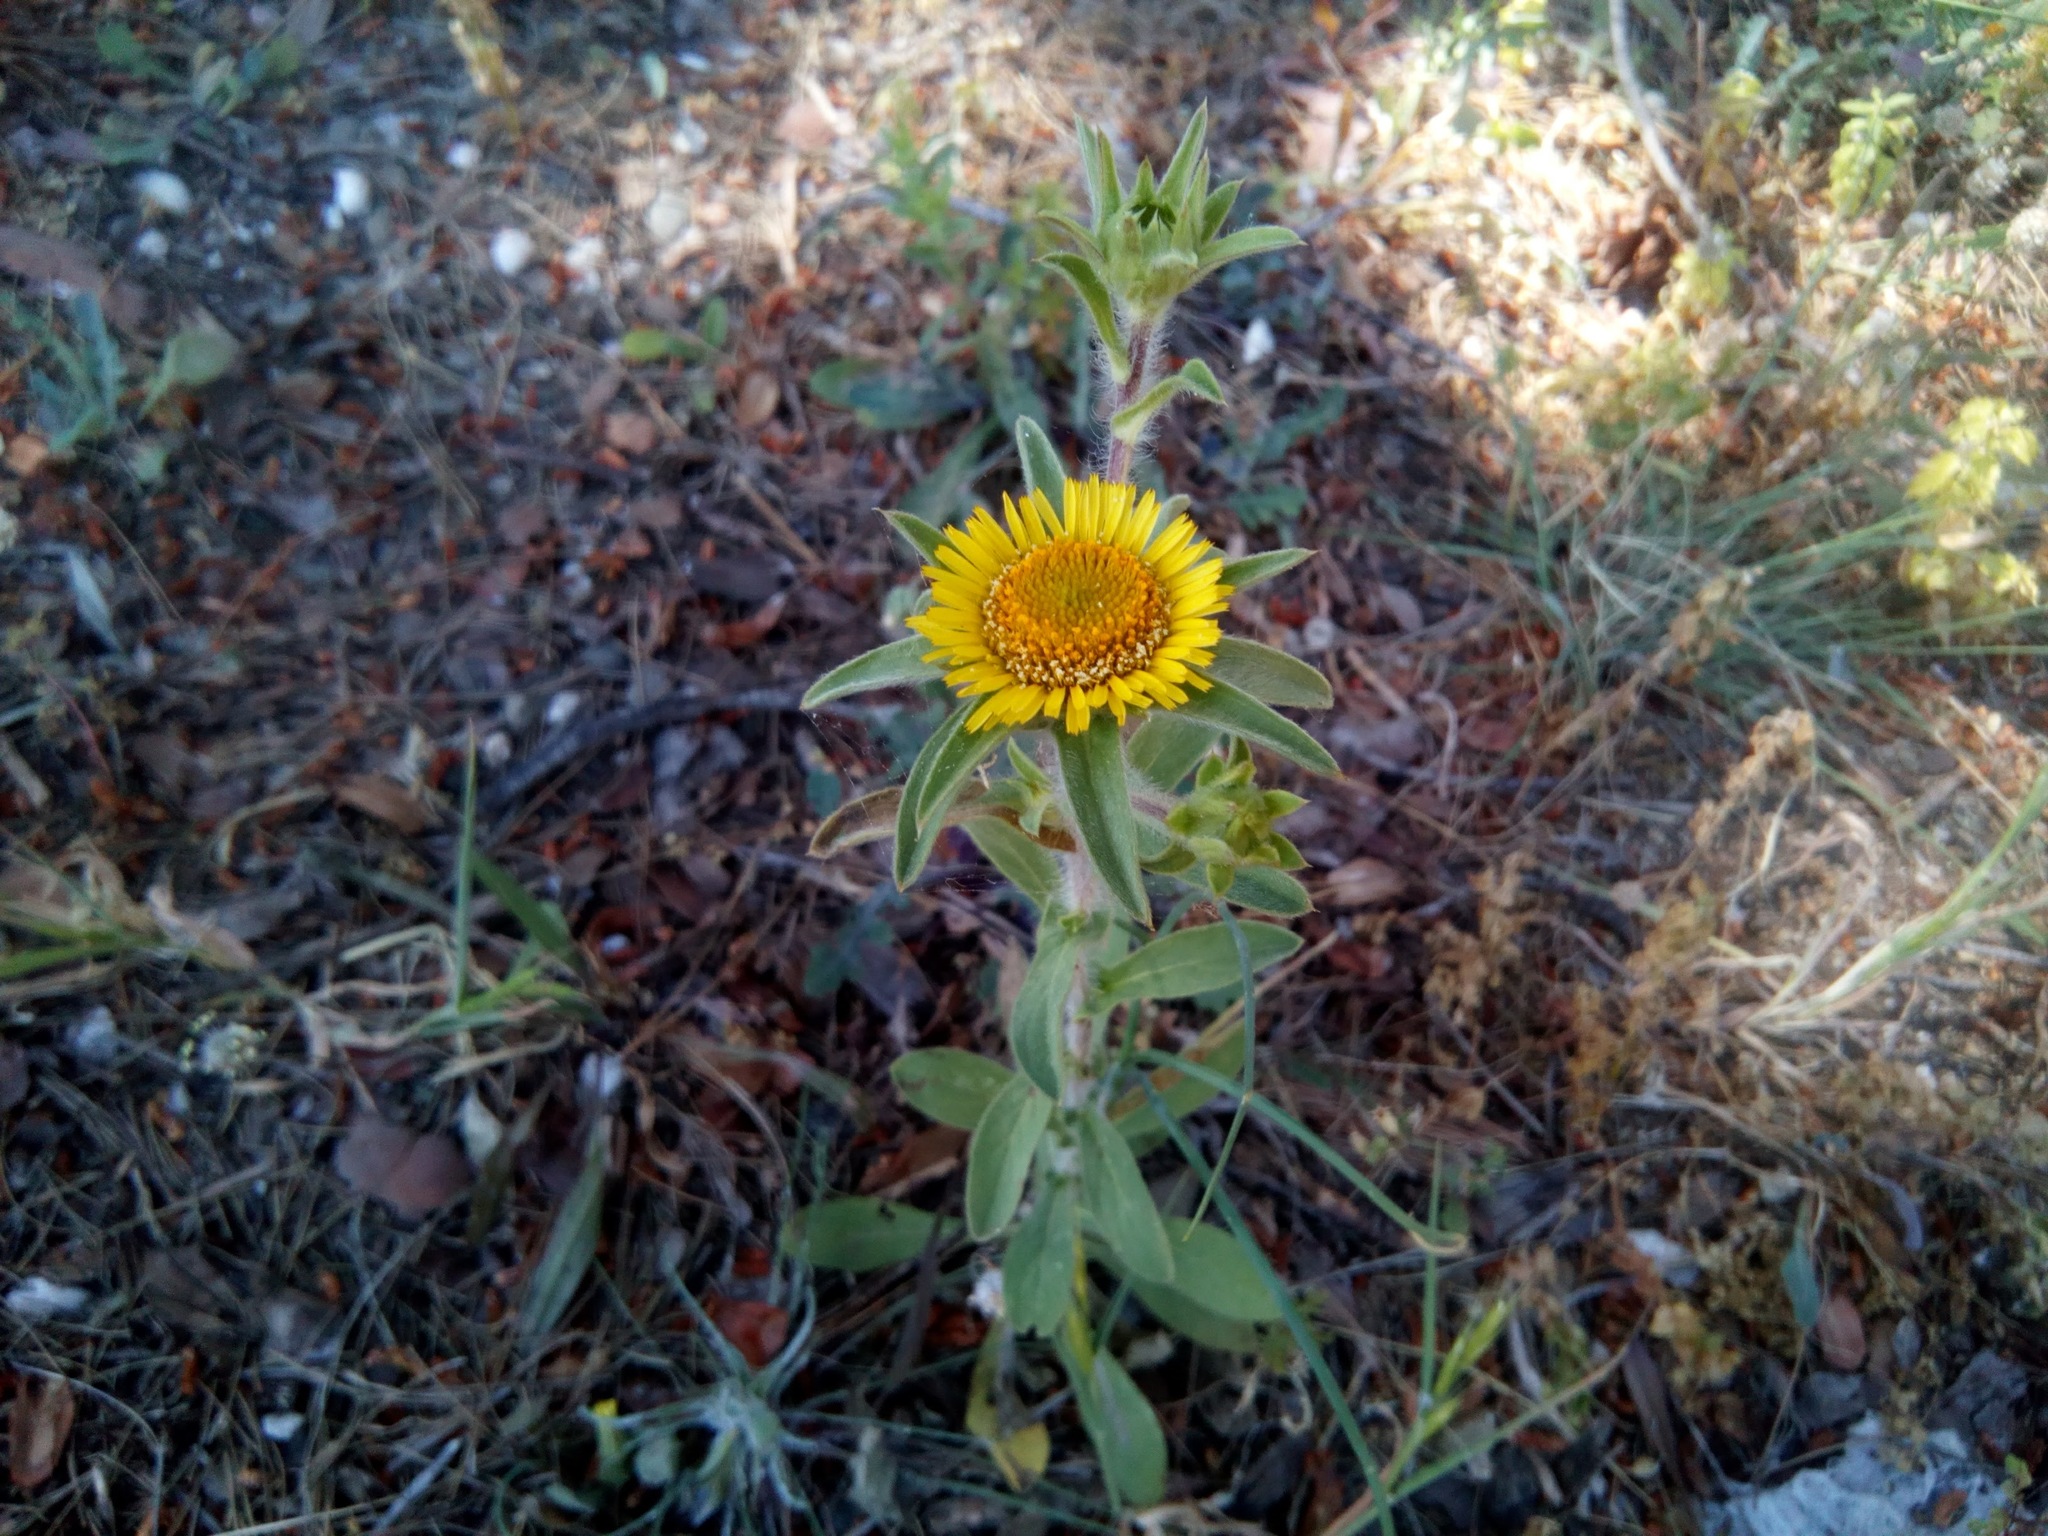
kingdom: Plantae
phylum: Tracheophyta
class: Magnoliopsida
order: Asterales
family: Asteraceae
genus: Pallenis
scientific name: Pallenis spinosa
